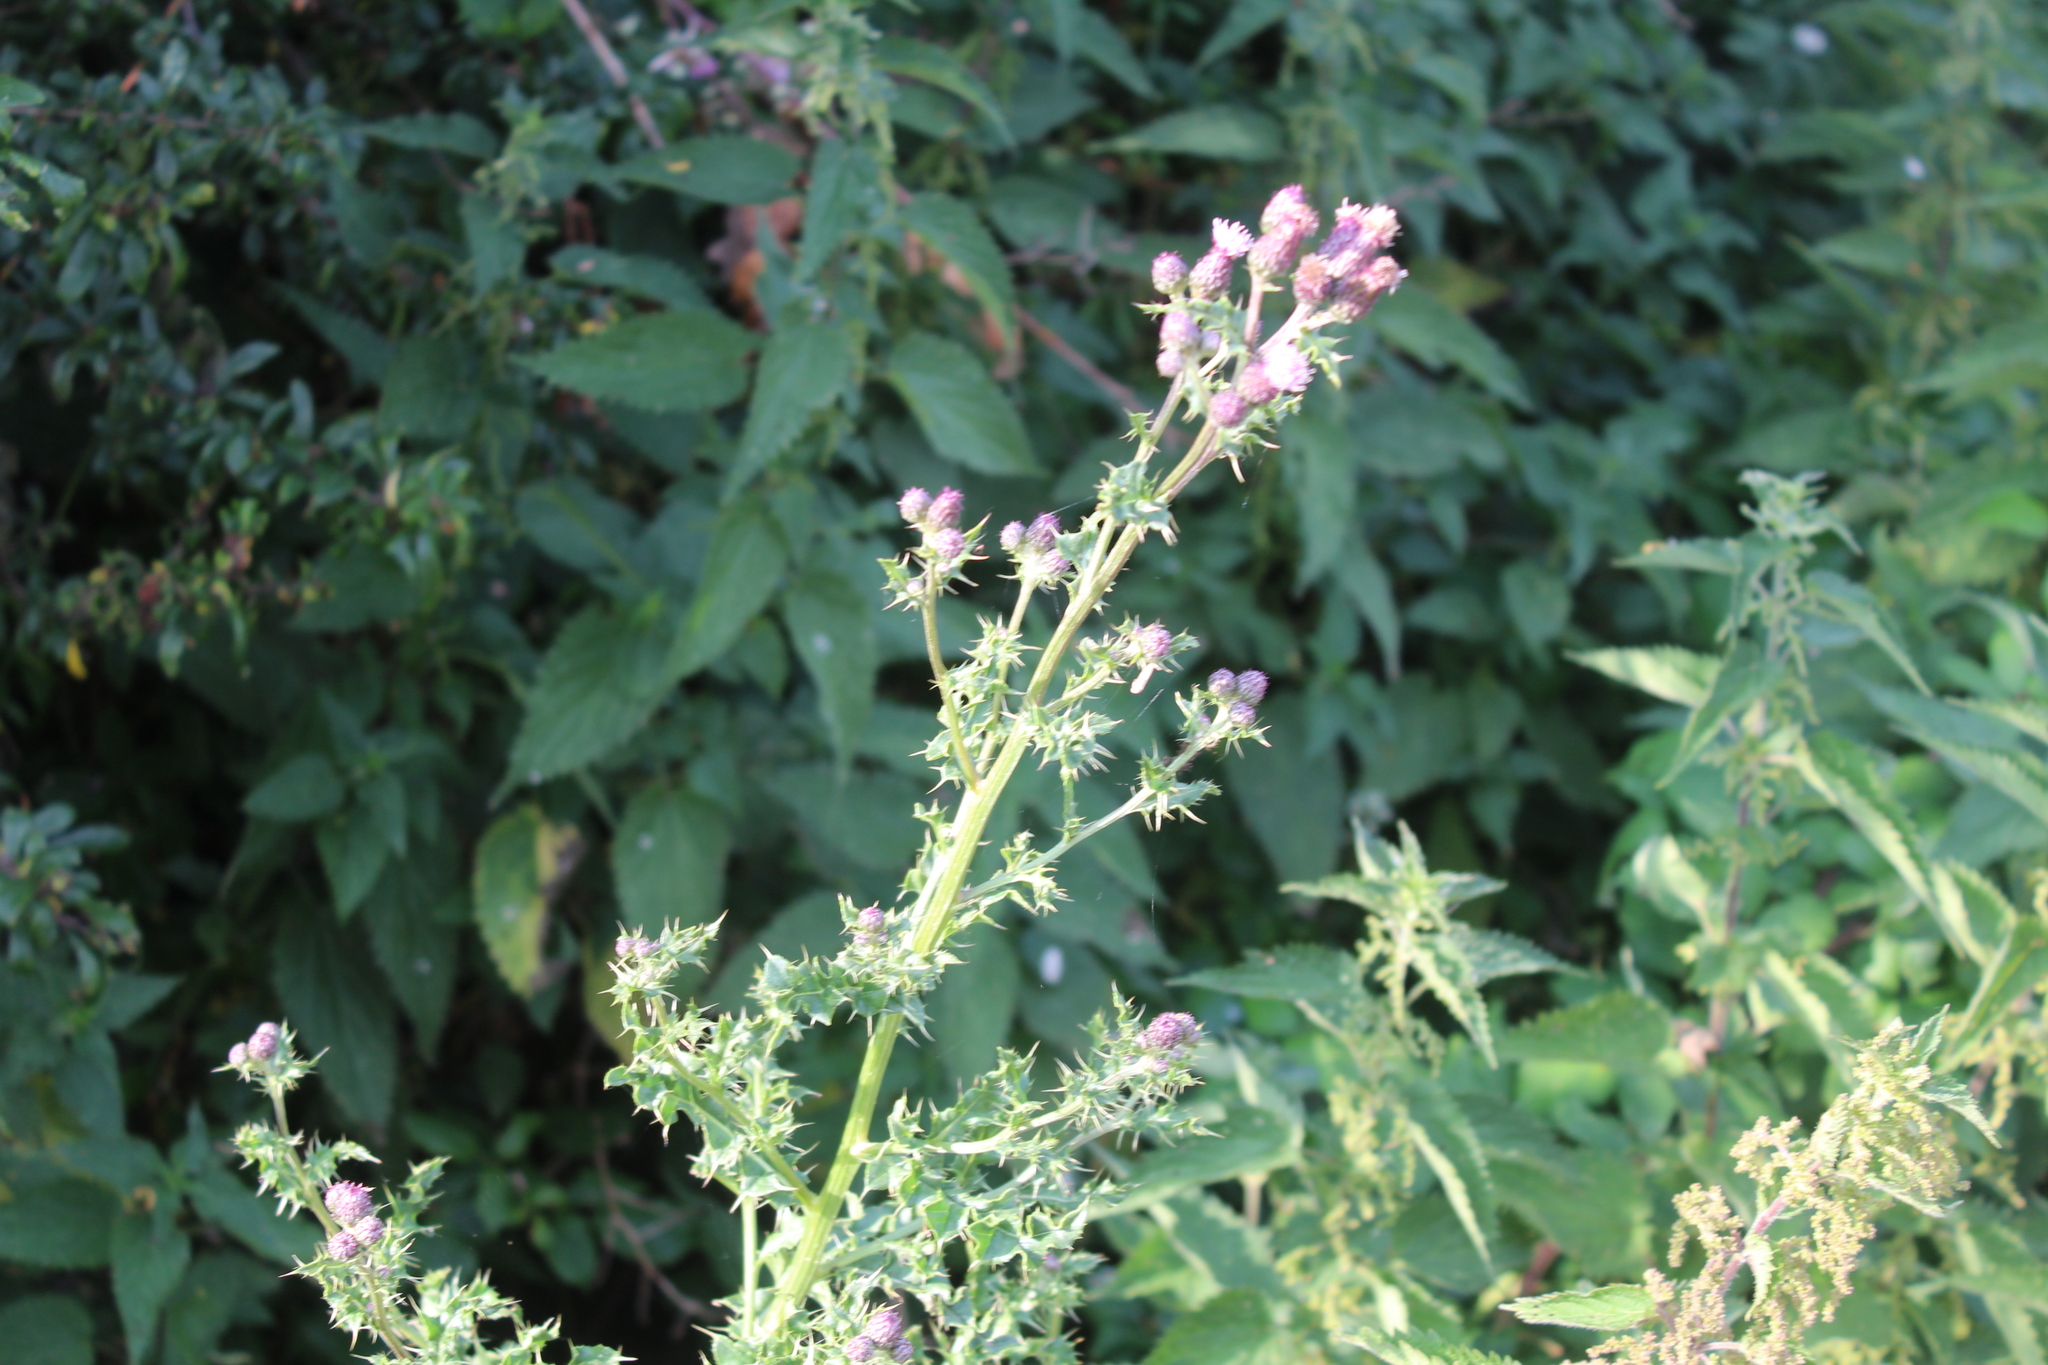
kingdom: Plantae
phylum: Tracheophyta
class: Magnoliopsida
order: Asterales
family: Asteraceae
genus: Cirsium
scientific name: Cirsium arvense
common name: Creeping thistle
